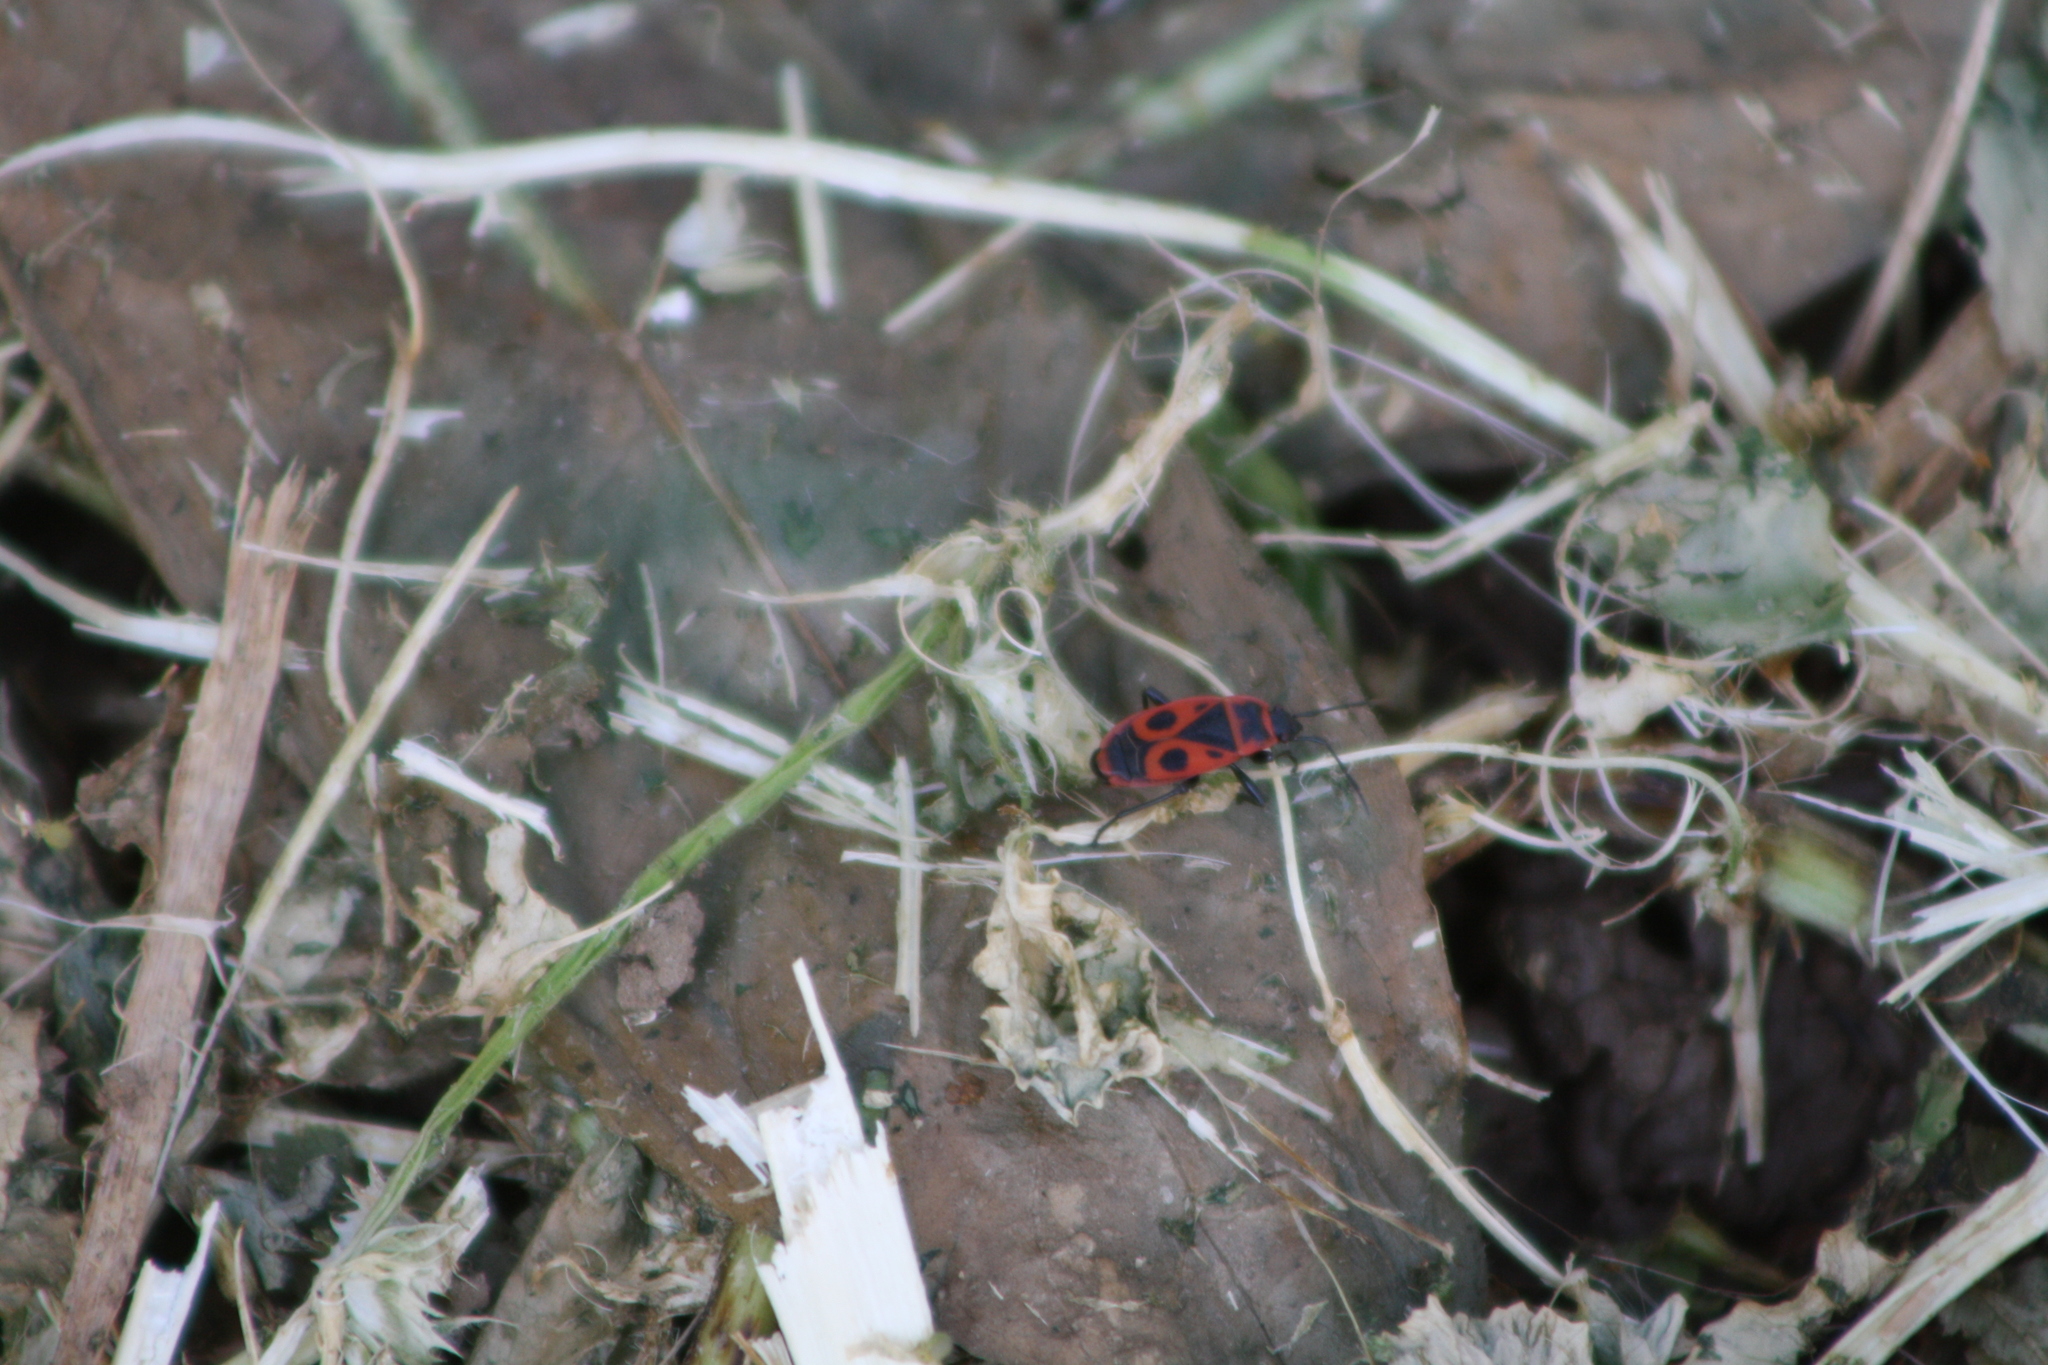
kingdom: Animalia
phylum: Arthropoda
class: Insecta
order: Hemiptera
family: Pyrrhocoridae
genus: Pyrrhocoris
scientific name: Pyrrhocoris apterus
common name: Firebug
